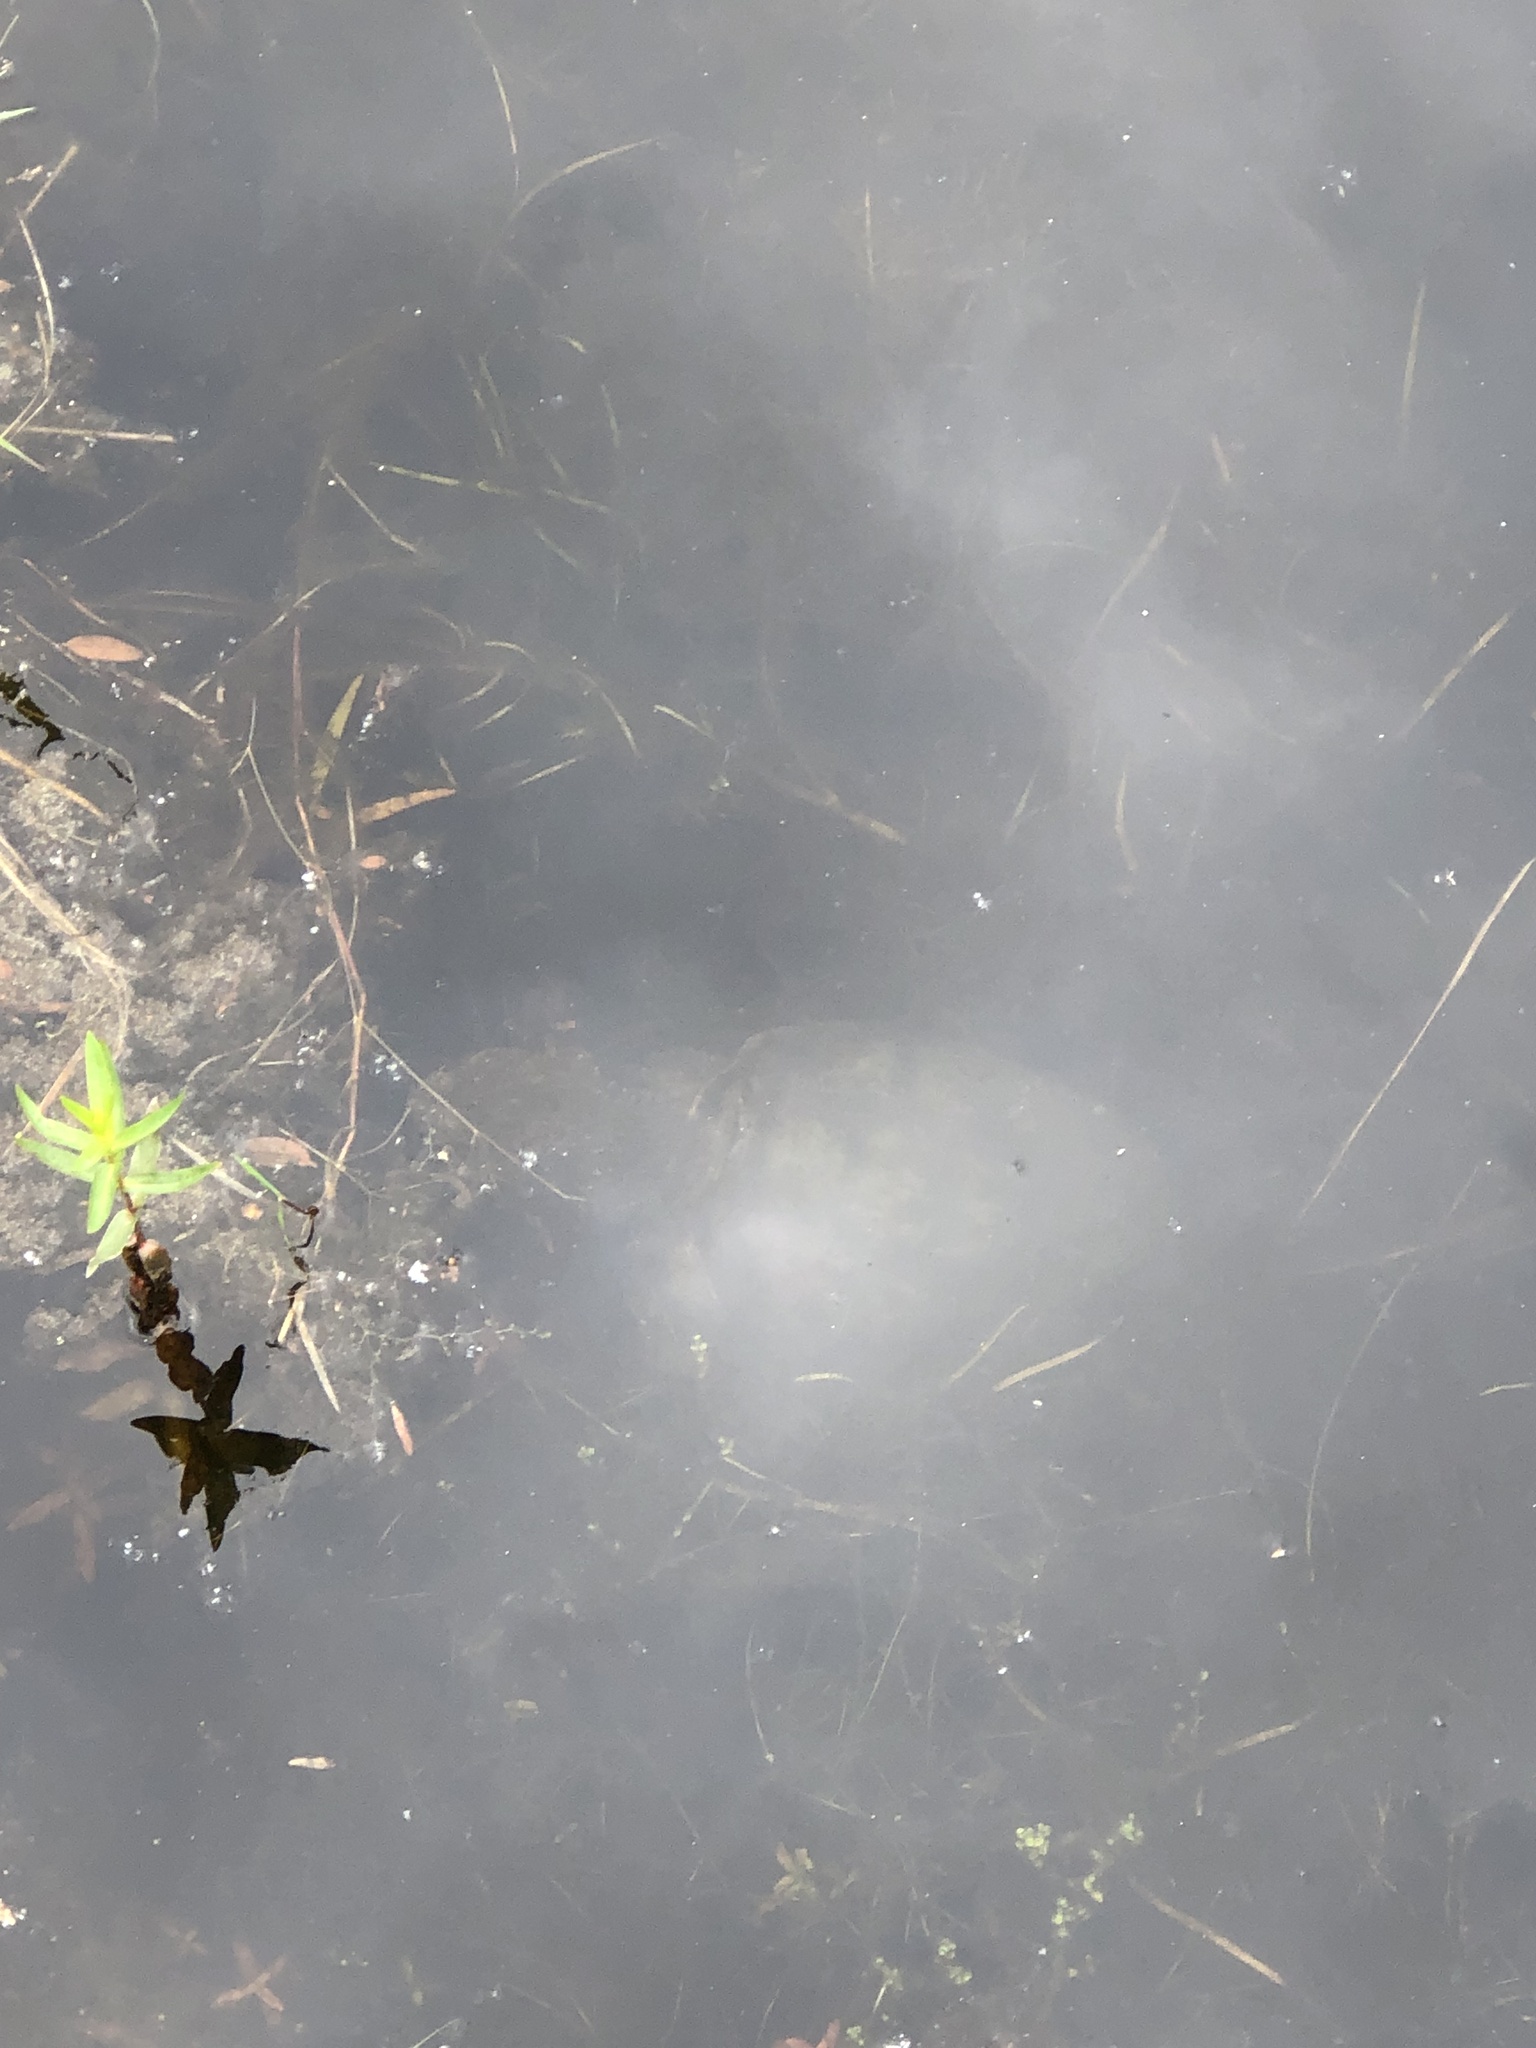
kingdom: Animalia
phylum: Chordata
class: Testudines
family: Chelydridae
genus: Chelydra
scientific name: Chelydra serpentina
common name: Common snapping turtle
